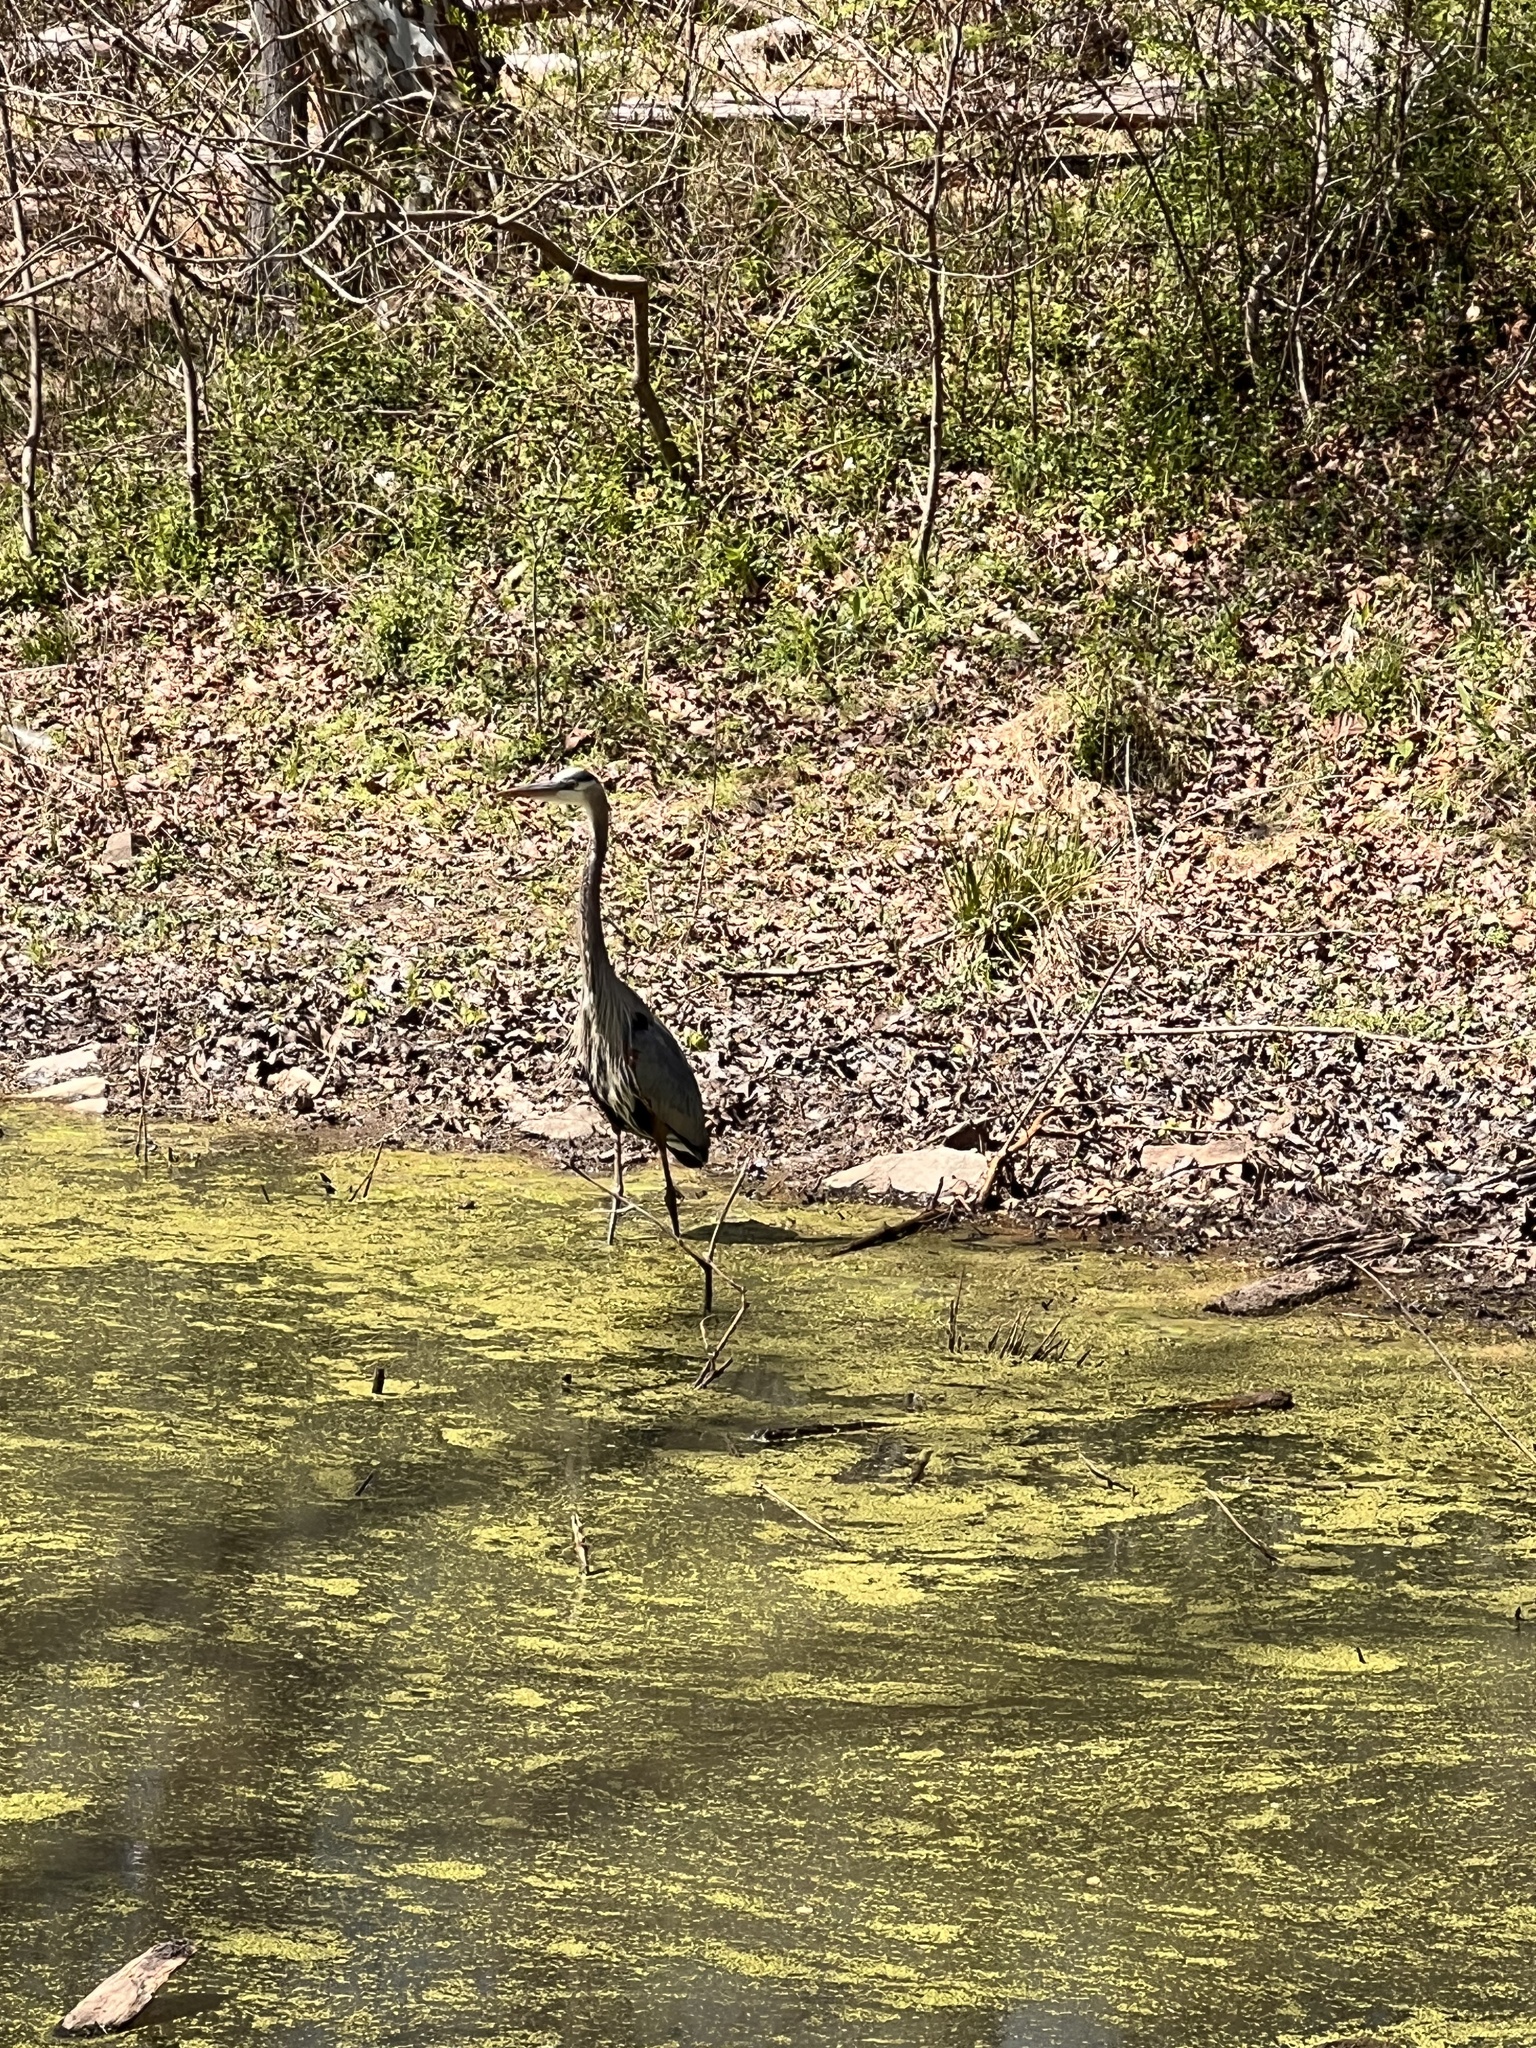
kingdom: Animalia
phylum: Chordata
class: Aves
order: Pelecaniformes
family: Ardeidae
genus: Ardea
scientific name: Ardea herodias
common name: Great blue heron
